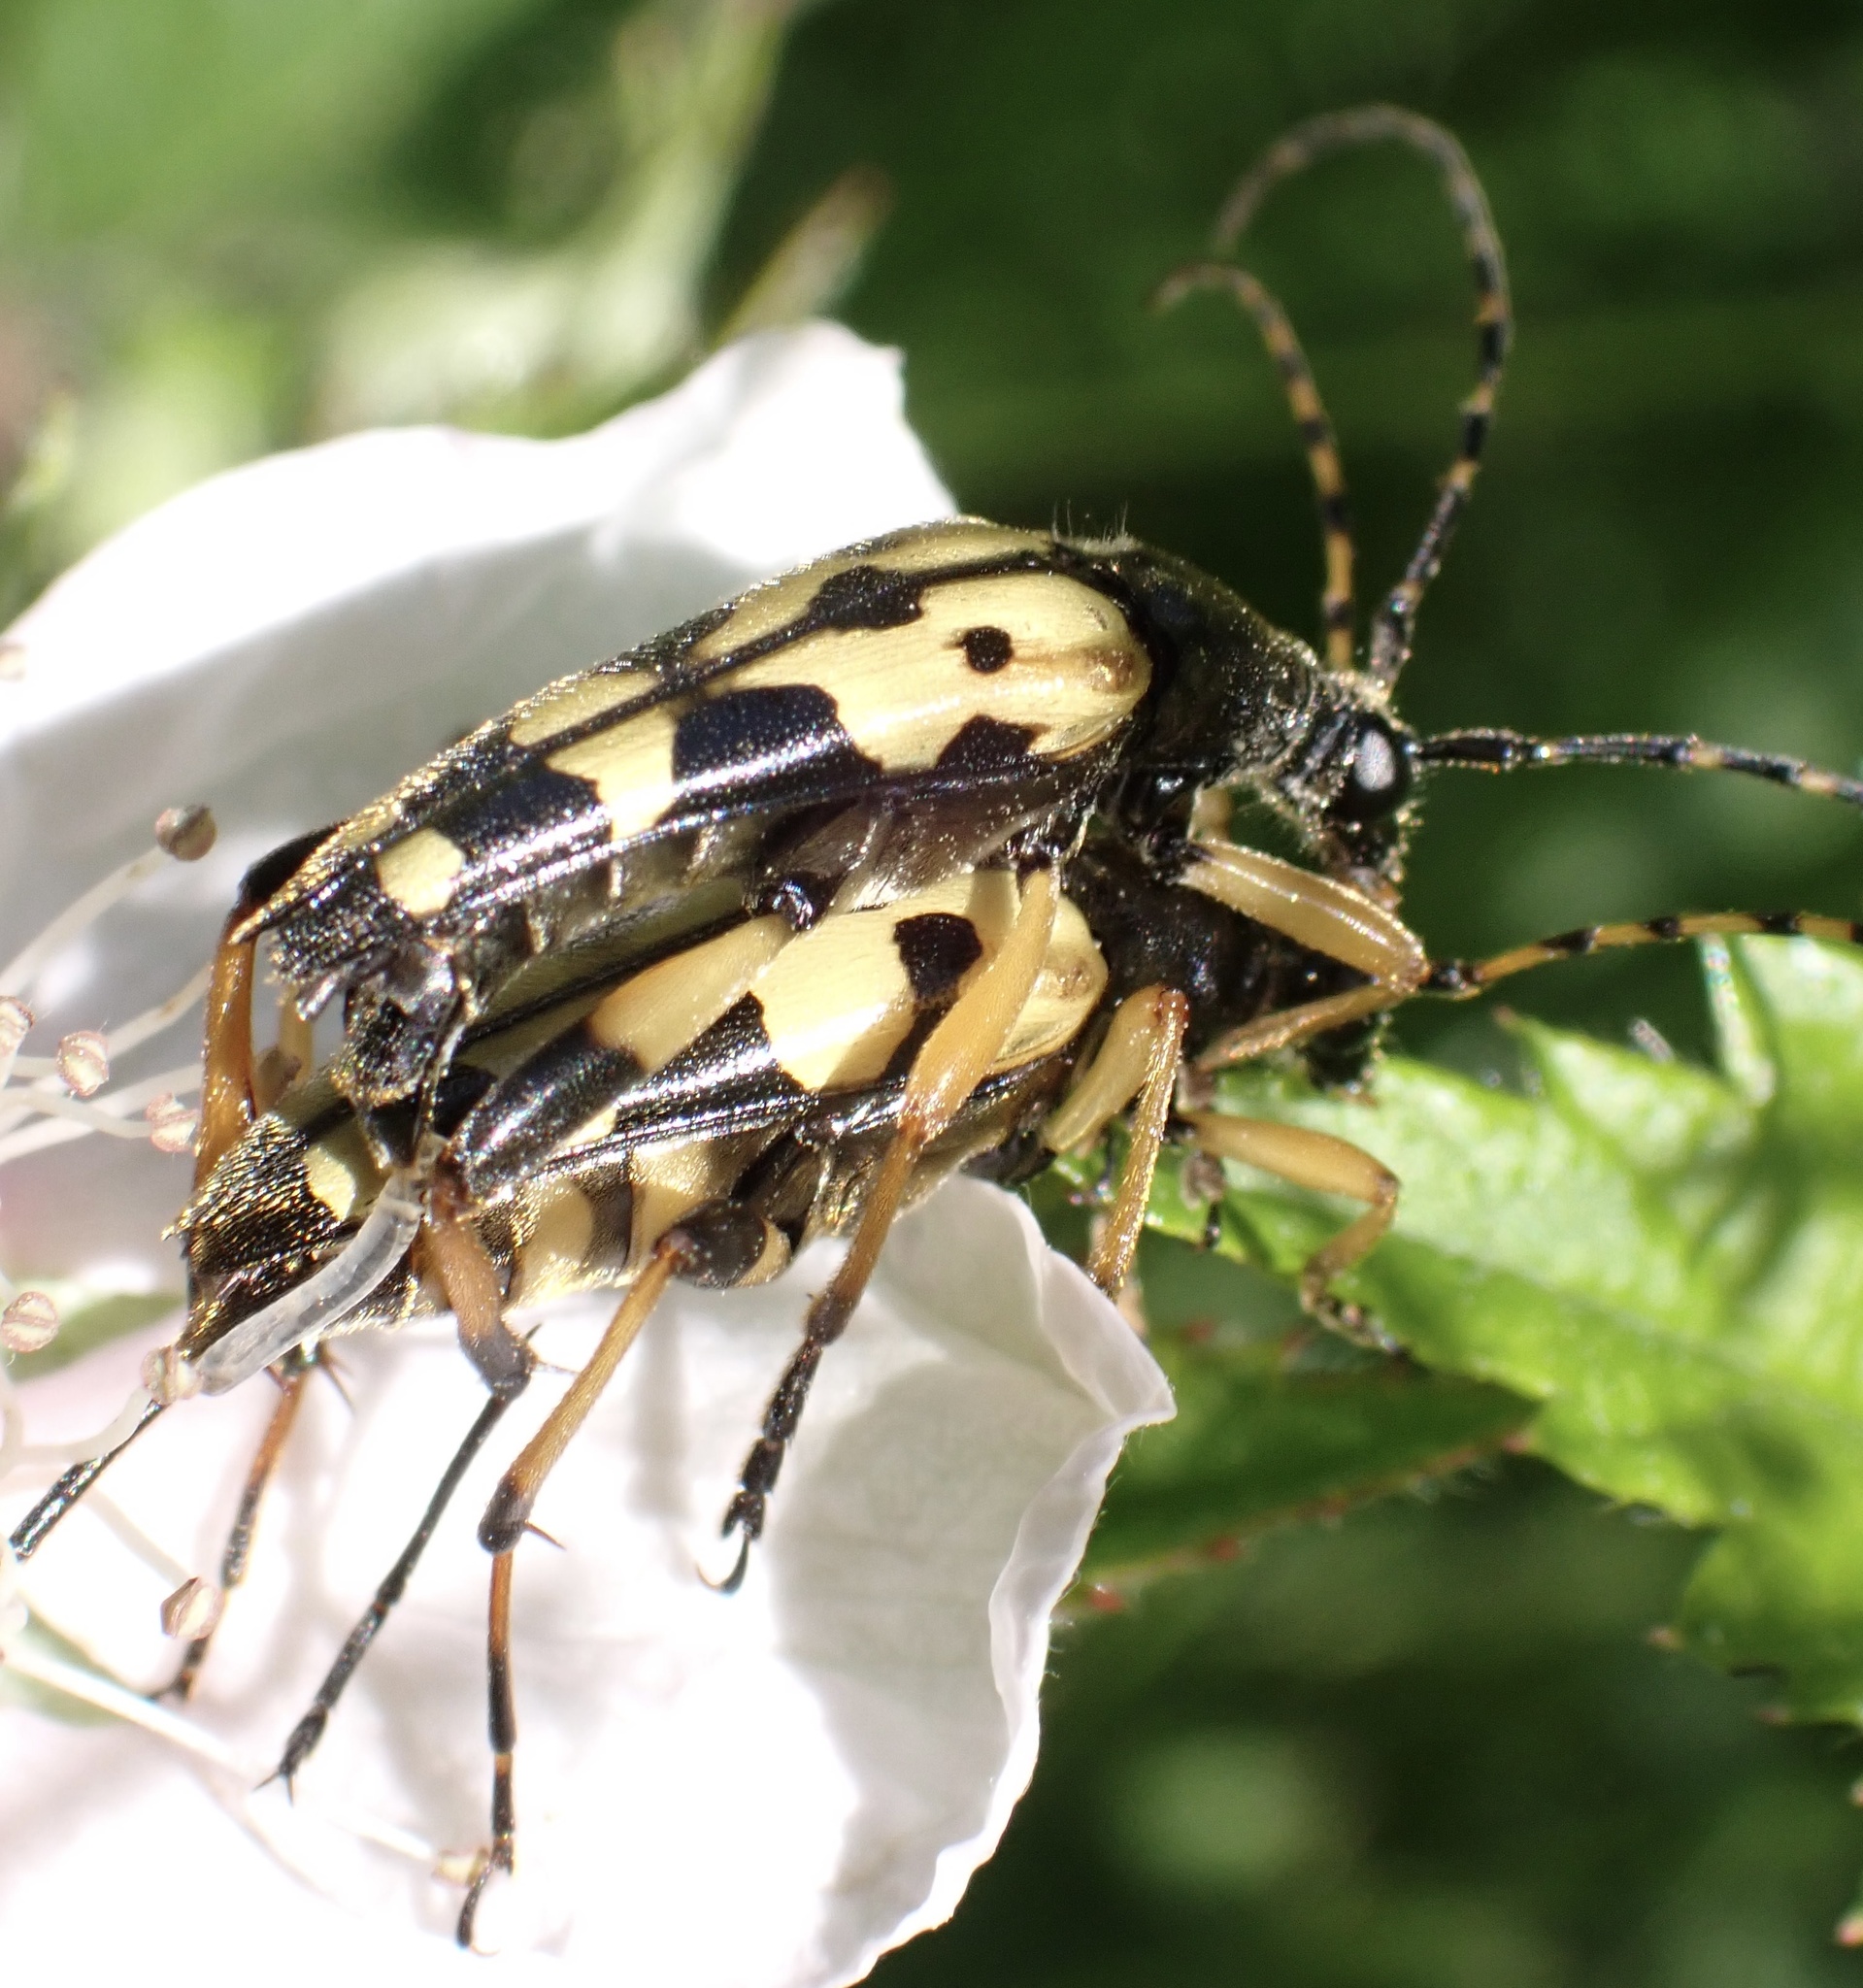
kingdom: Animalia
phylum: Arthropoda
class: Insecta
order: Coleoptera
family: Cerambycidae
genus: Rutpela
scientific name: Rutpela maculata
